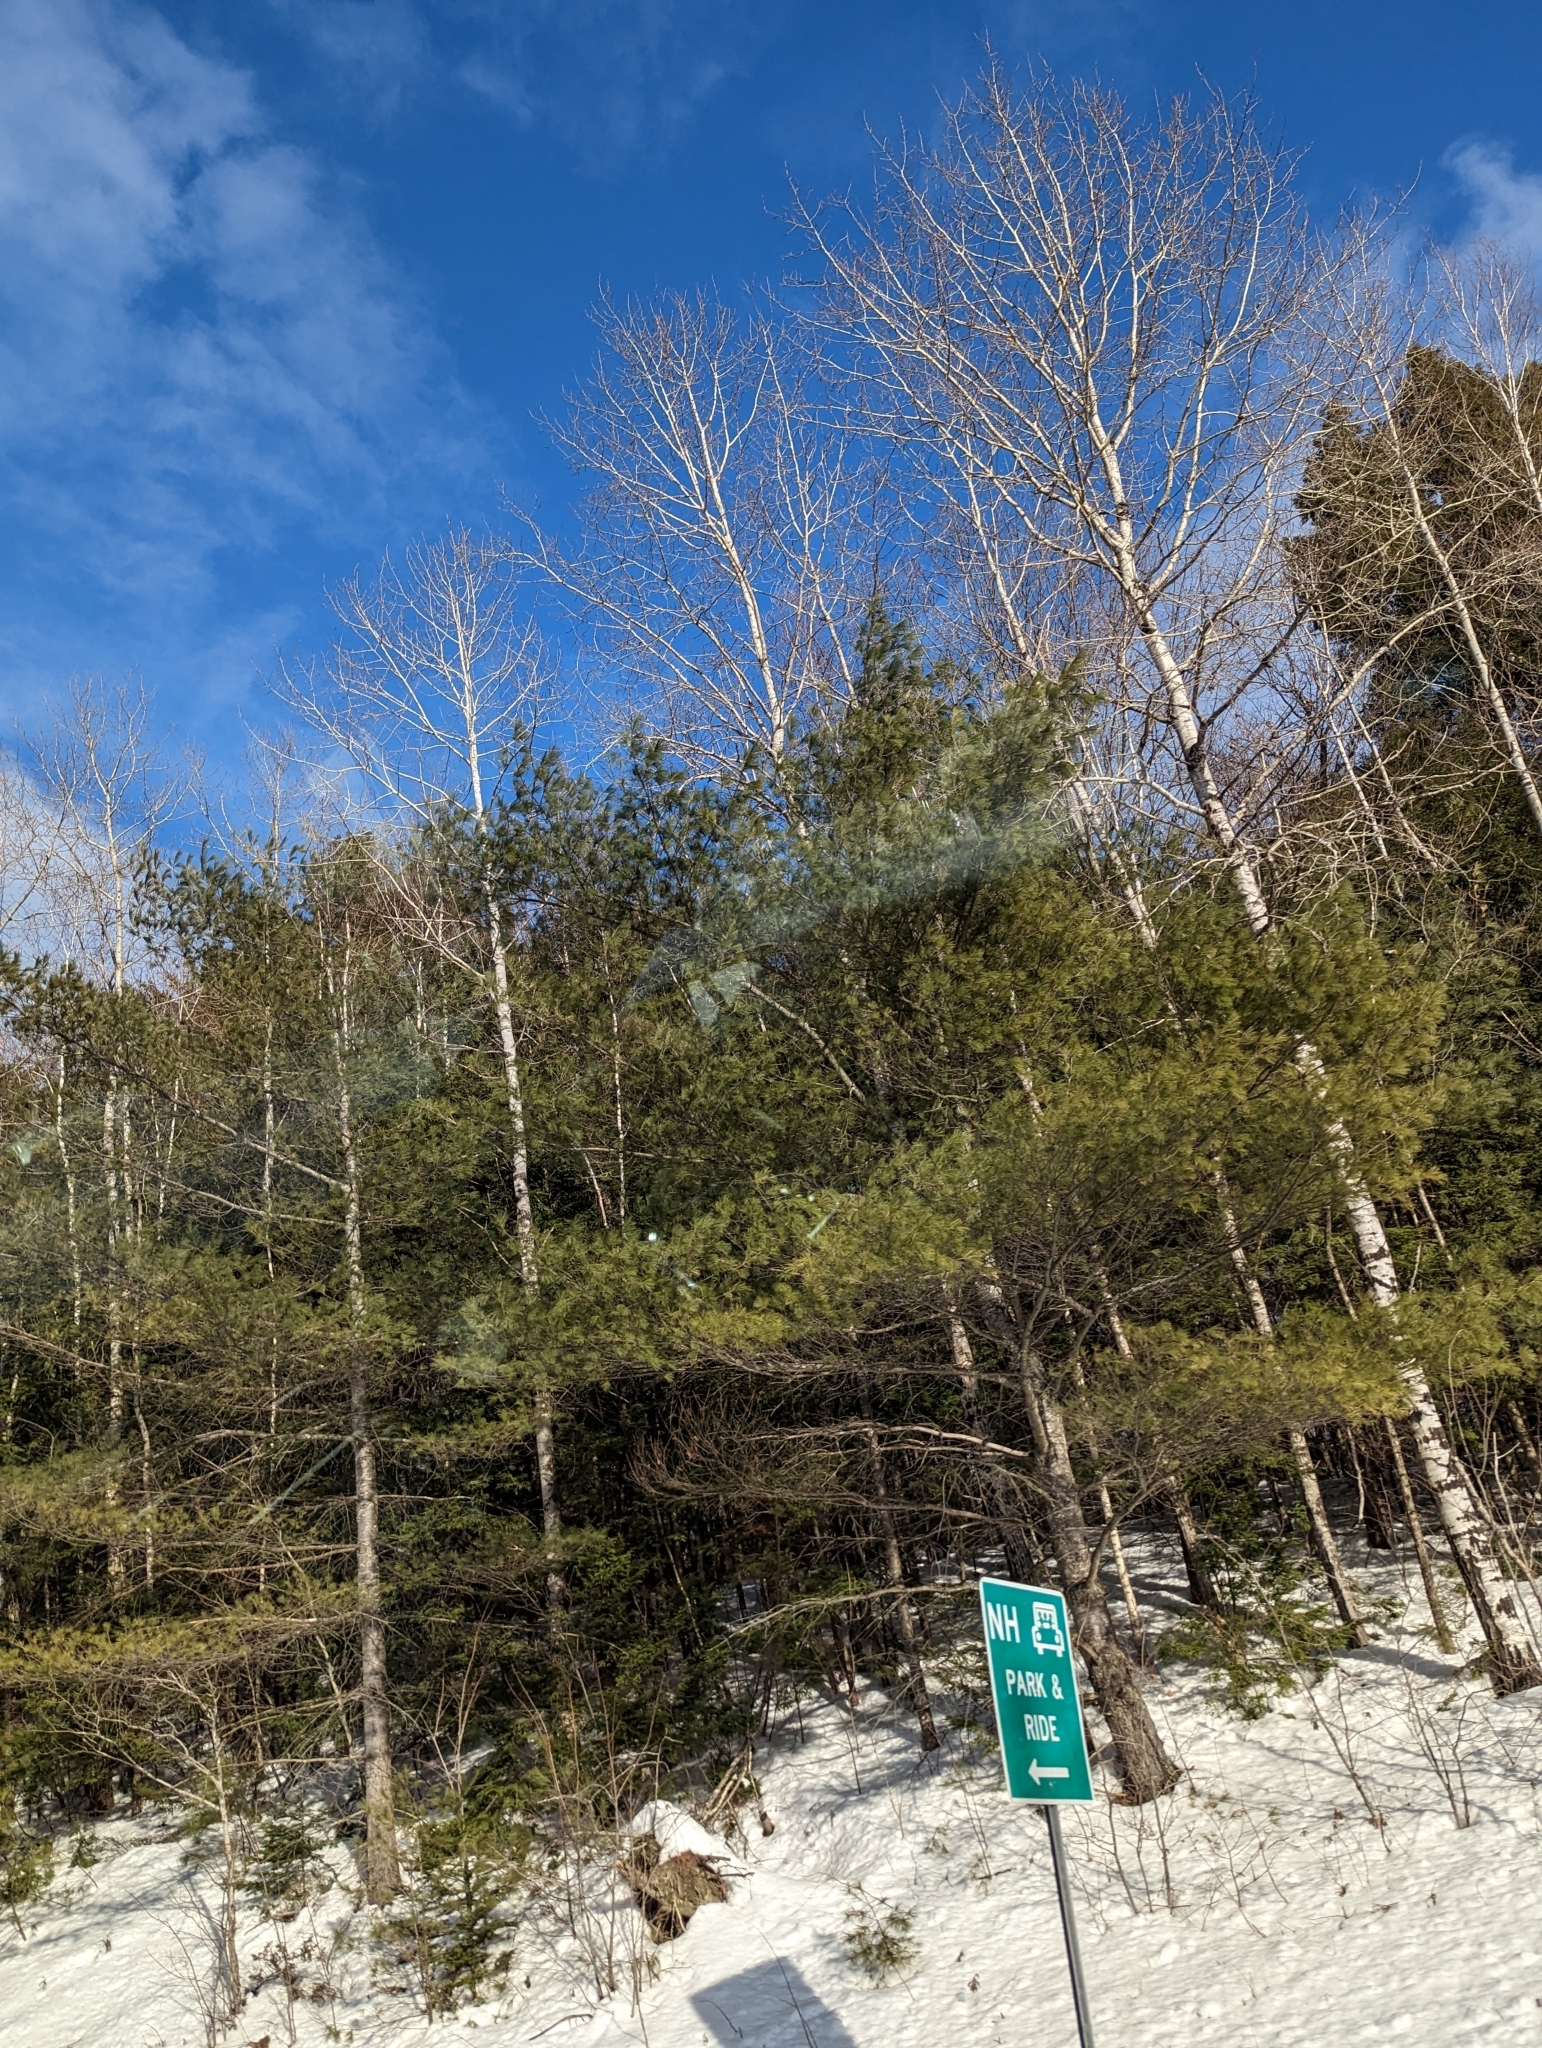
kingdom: Plantae
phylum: Tracheophyta
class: Pinopsida
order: Pinales
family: Pinaceae
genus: Pinus
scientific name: Pinus strobus
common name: Weymouth pine
